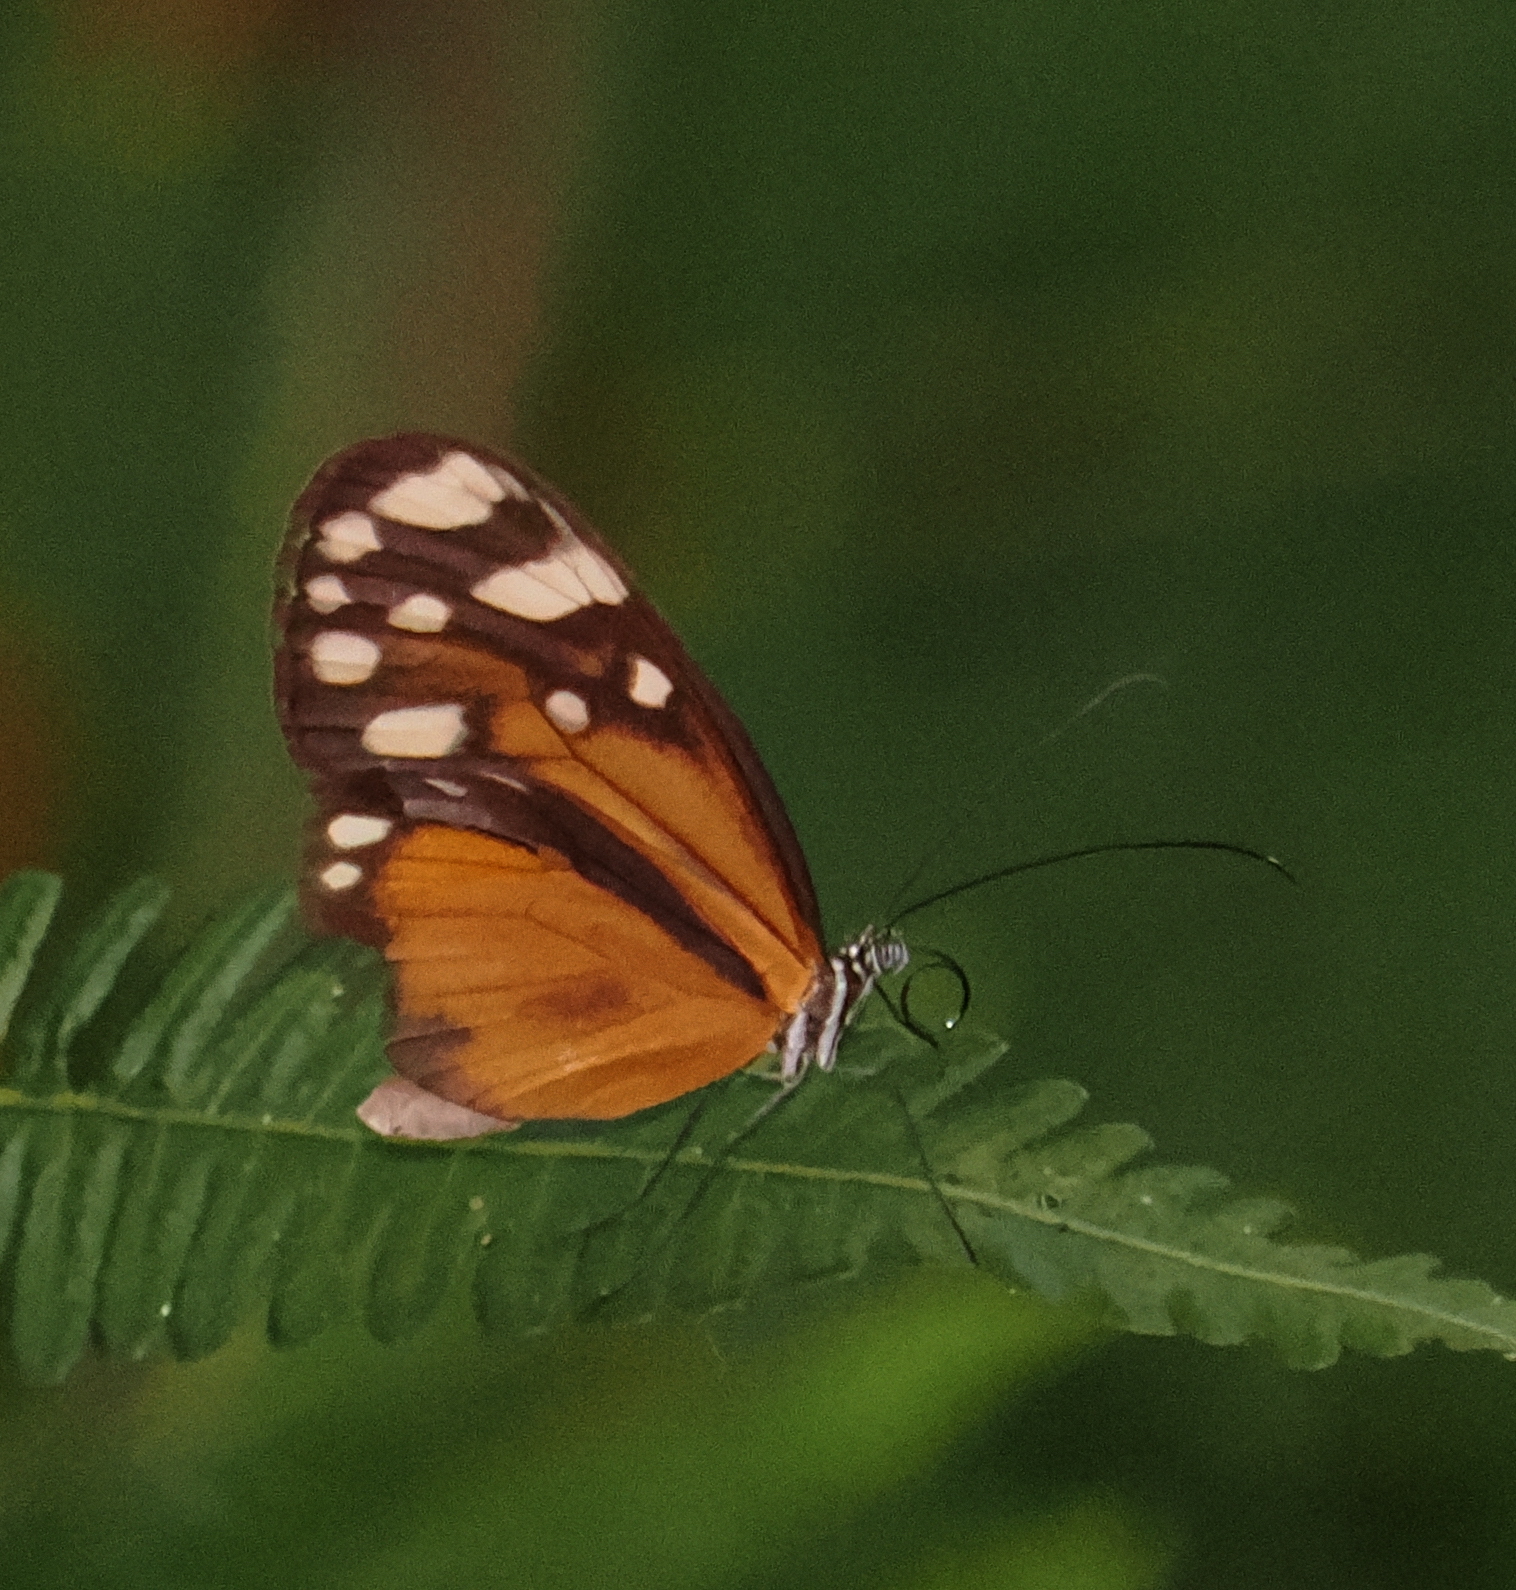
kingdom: Animalia
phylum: Arthropoda
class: Insecta
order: Lepidoptera
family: Nymphalidae
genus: Hyposcada
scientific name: Hyposcada virginiana
